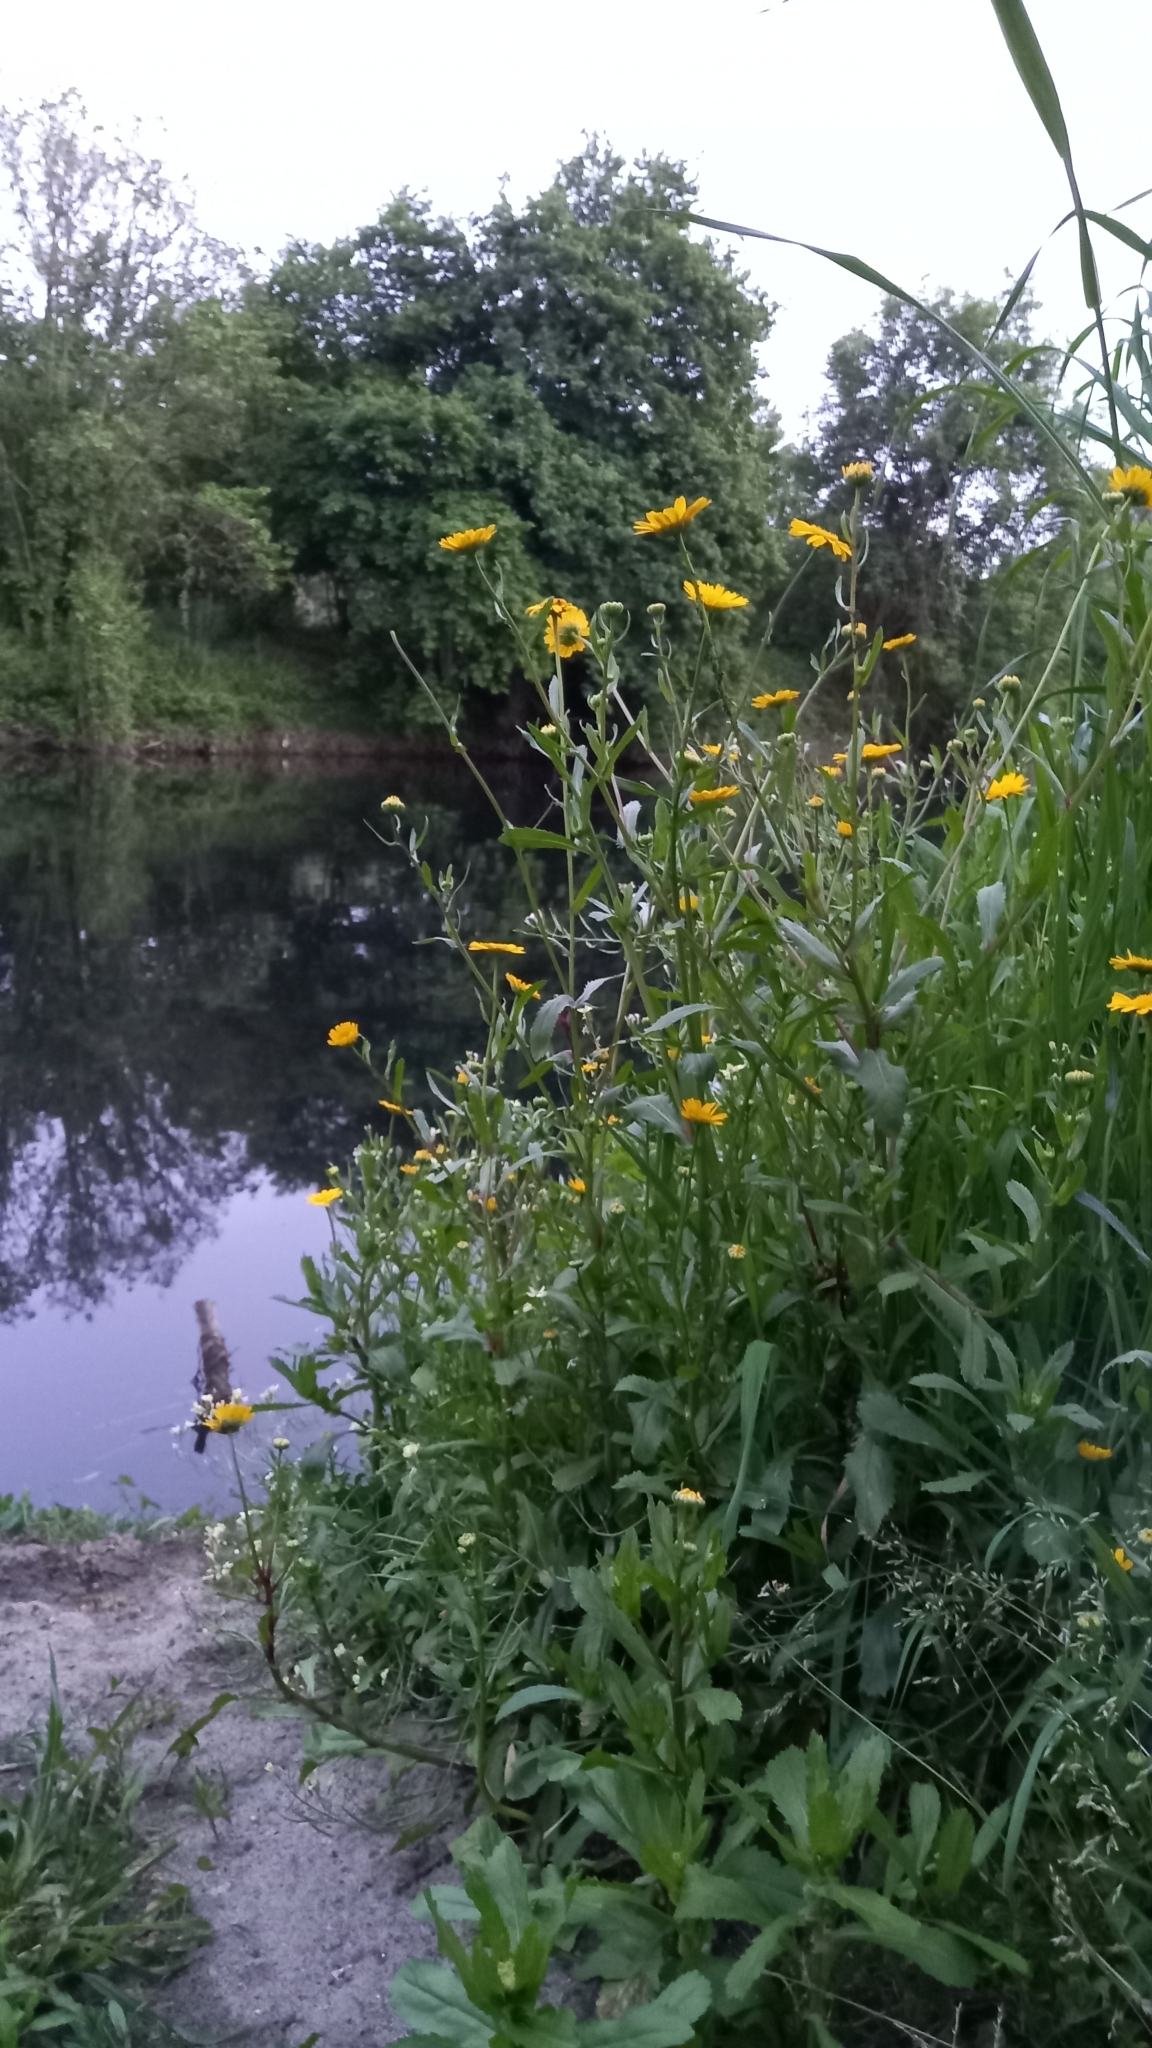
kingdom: Plantae
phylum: Tracheophyta
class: Magnoliopsida
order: Asterales
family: Asteraceae
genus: Coleostephus
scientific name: Coleostephus myconis
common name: Mediterranean marigold
